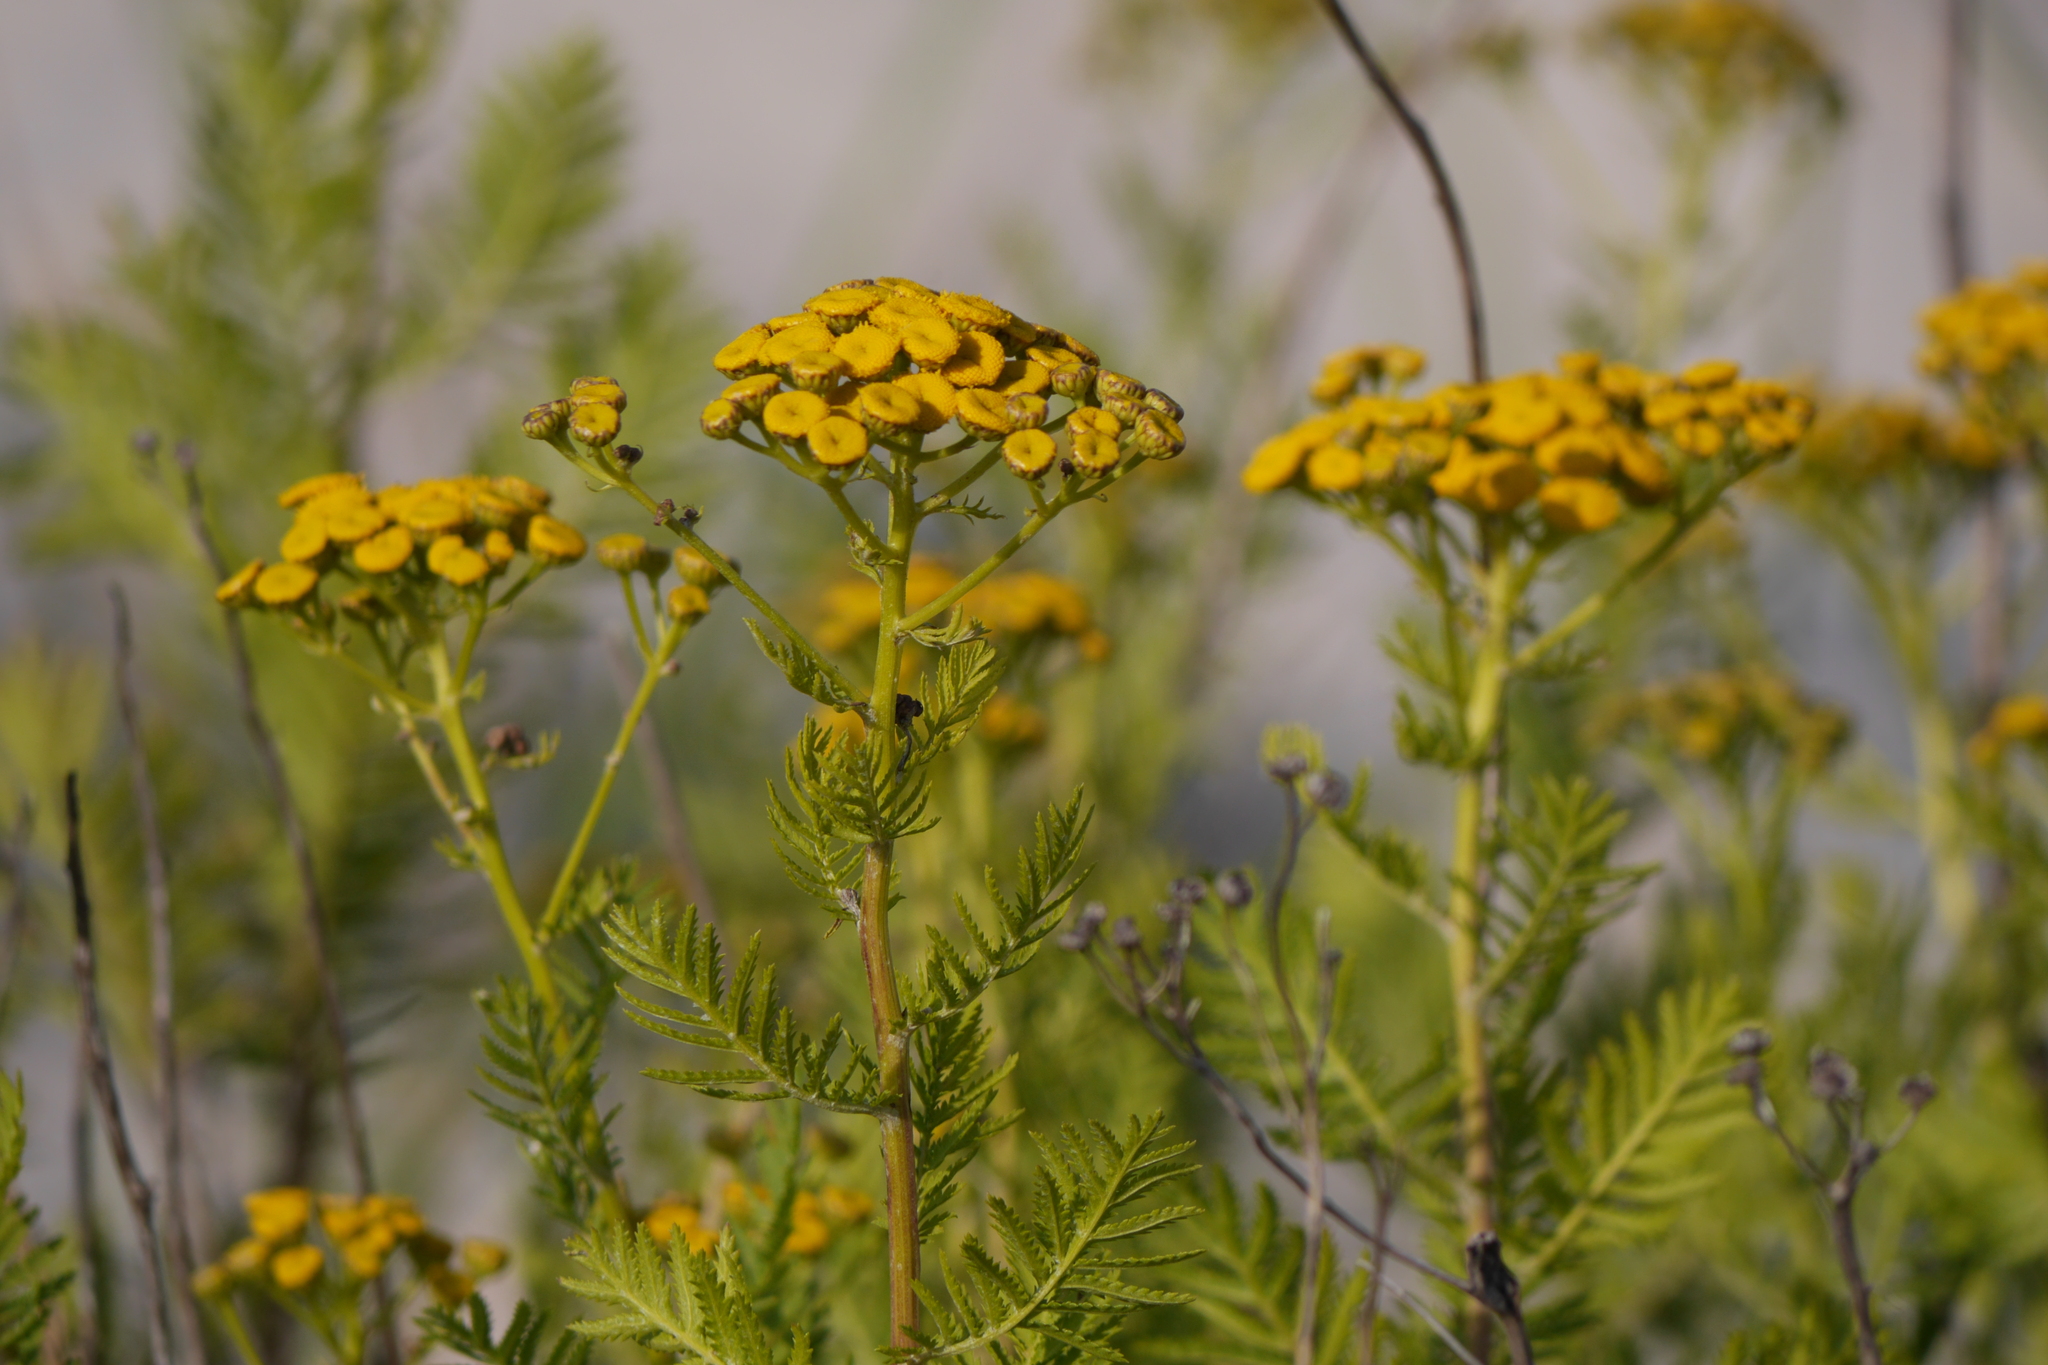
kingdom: Plantae
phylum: Tracheophyta
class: Magnoliopsida
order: Asterales
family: Asteraceae
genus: Tanacetum
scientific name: Tanacetum vulgare
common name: Common tansy
